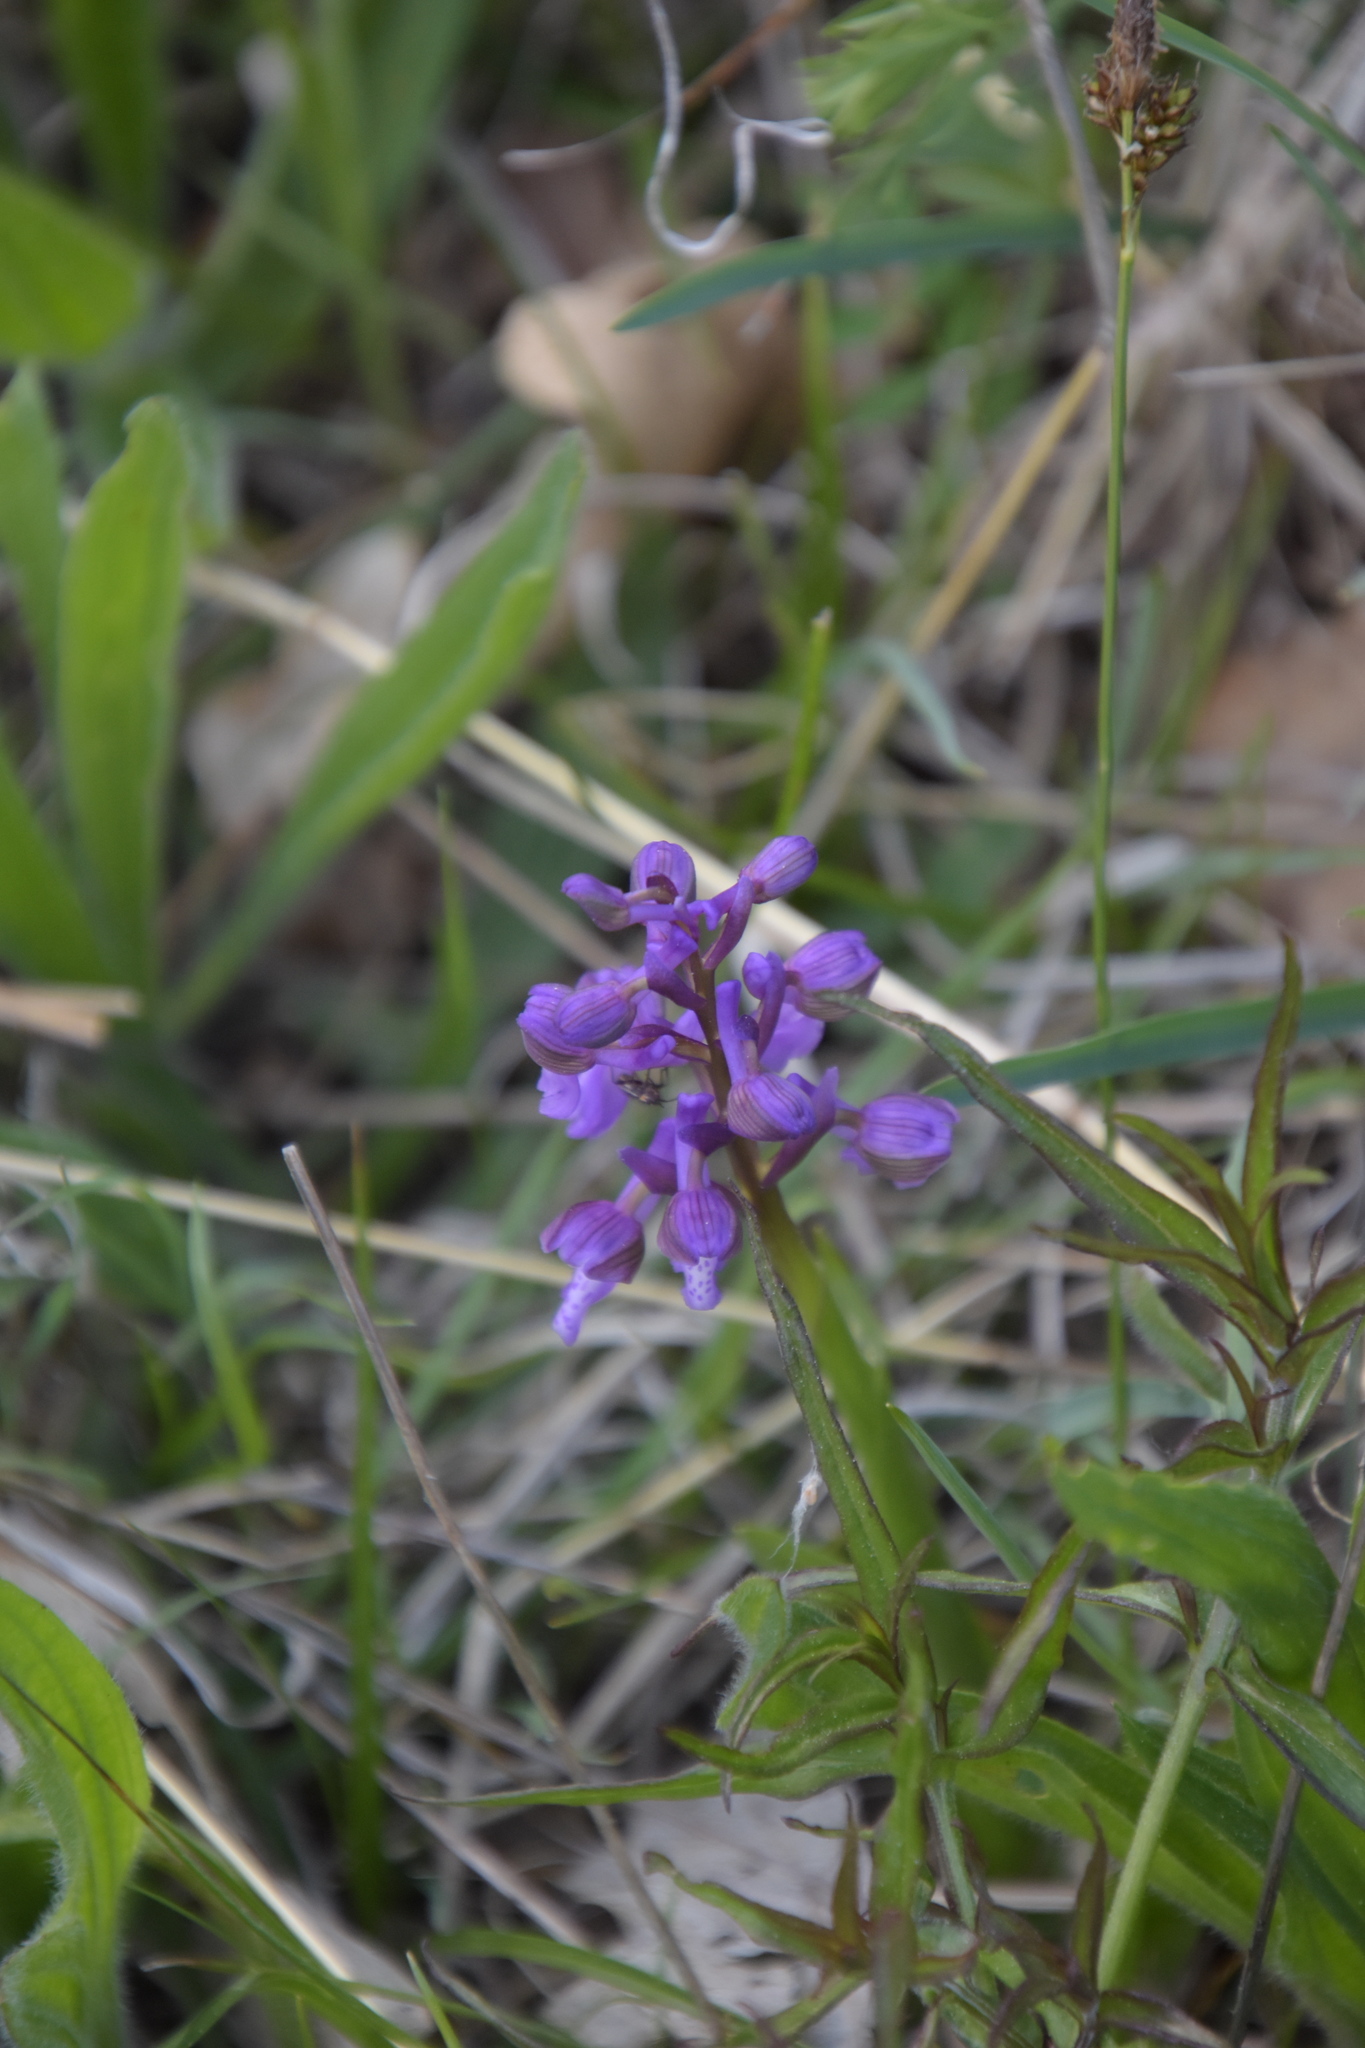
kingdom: Plantae
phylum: Tracheophyta
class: Liliopsida
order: Asparagales
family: Orchidaceae
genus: Anacamptis
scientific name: Anacamptis morio
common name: Green-winged orchid
